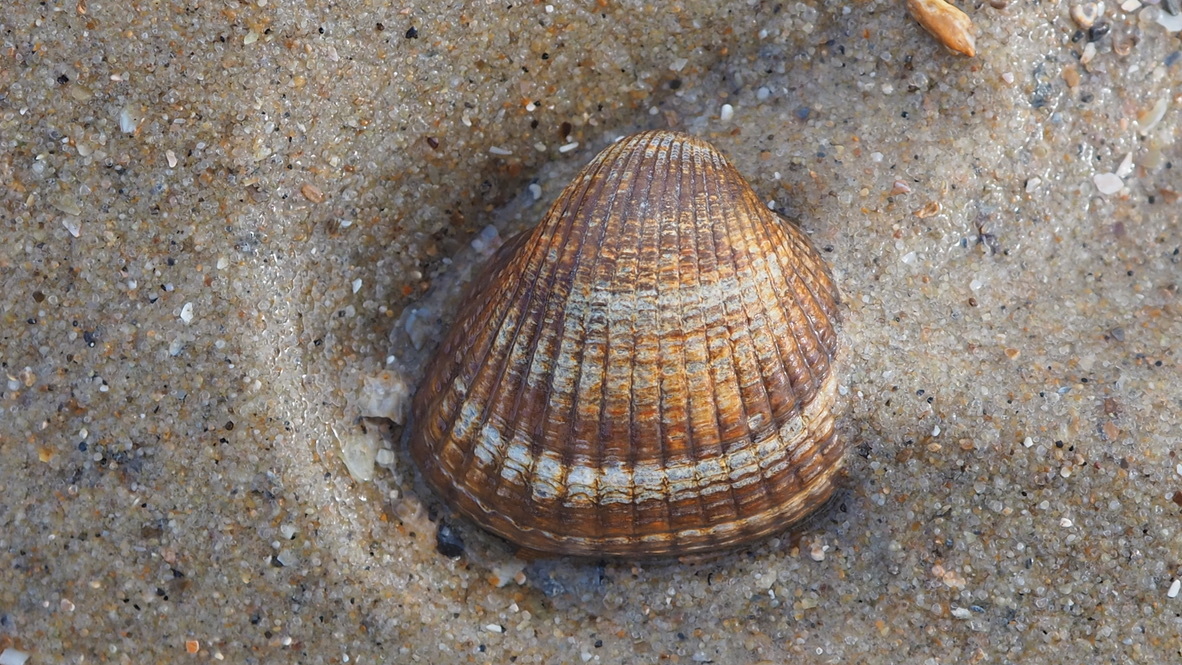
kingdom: Animalia
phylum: Mollusca
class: Bivalvia
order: Cardiida
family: Cardiidae
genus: Cerastoderma
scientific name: Cerastoderma edule
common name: Common cockle
